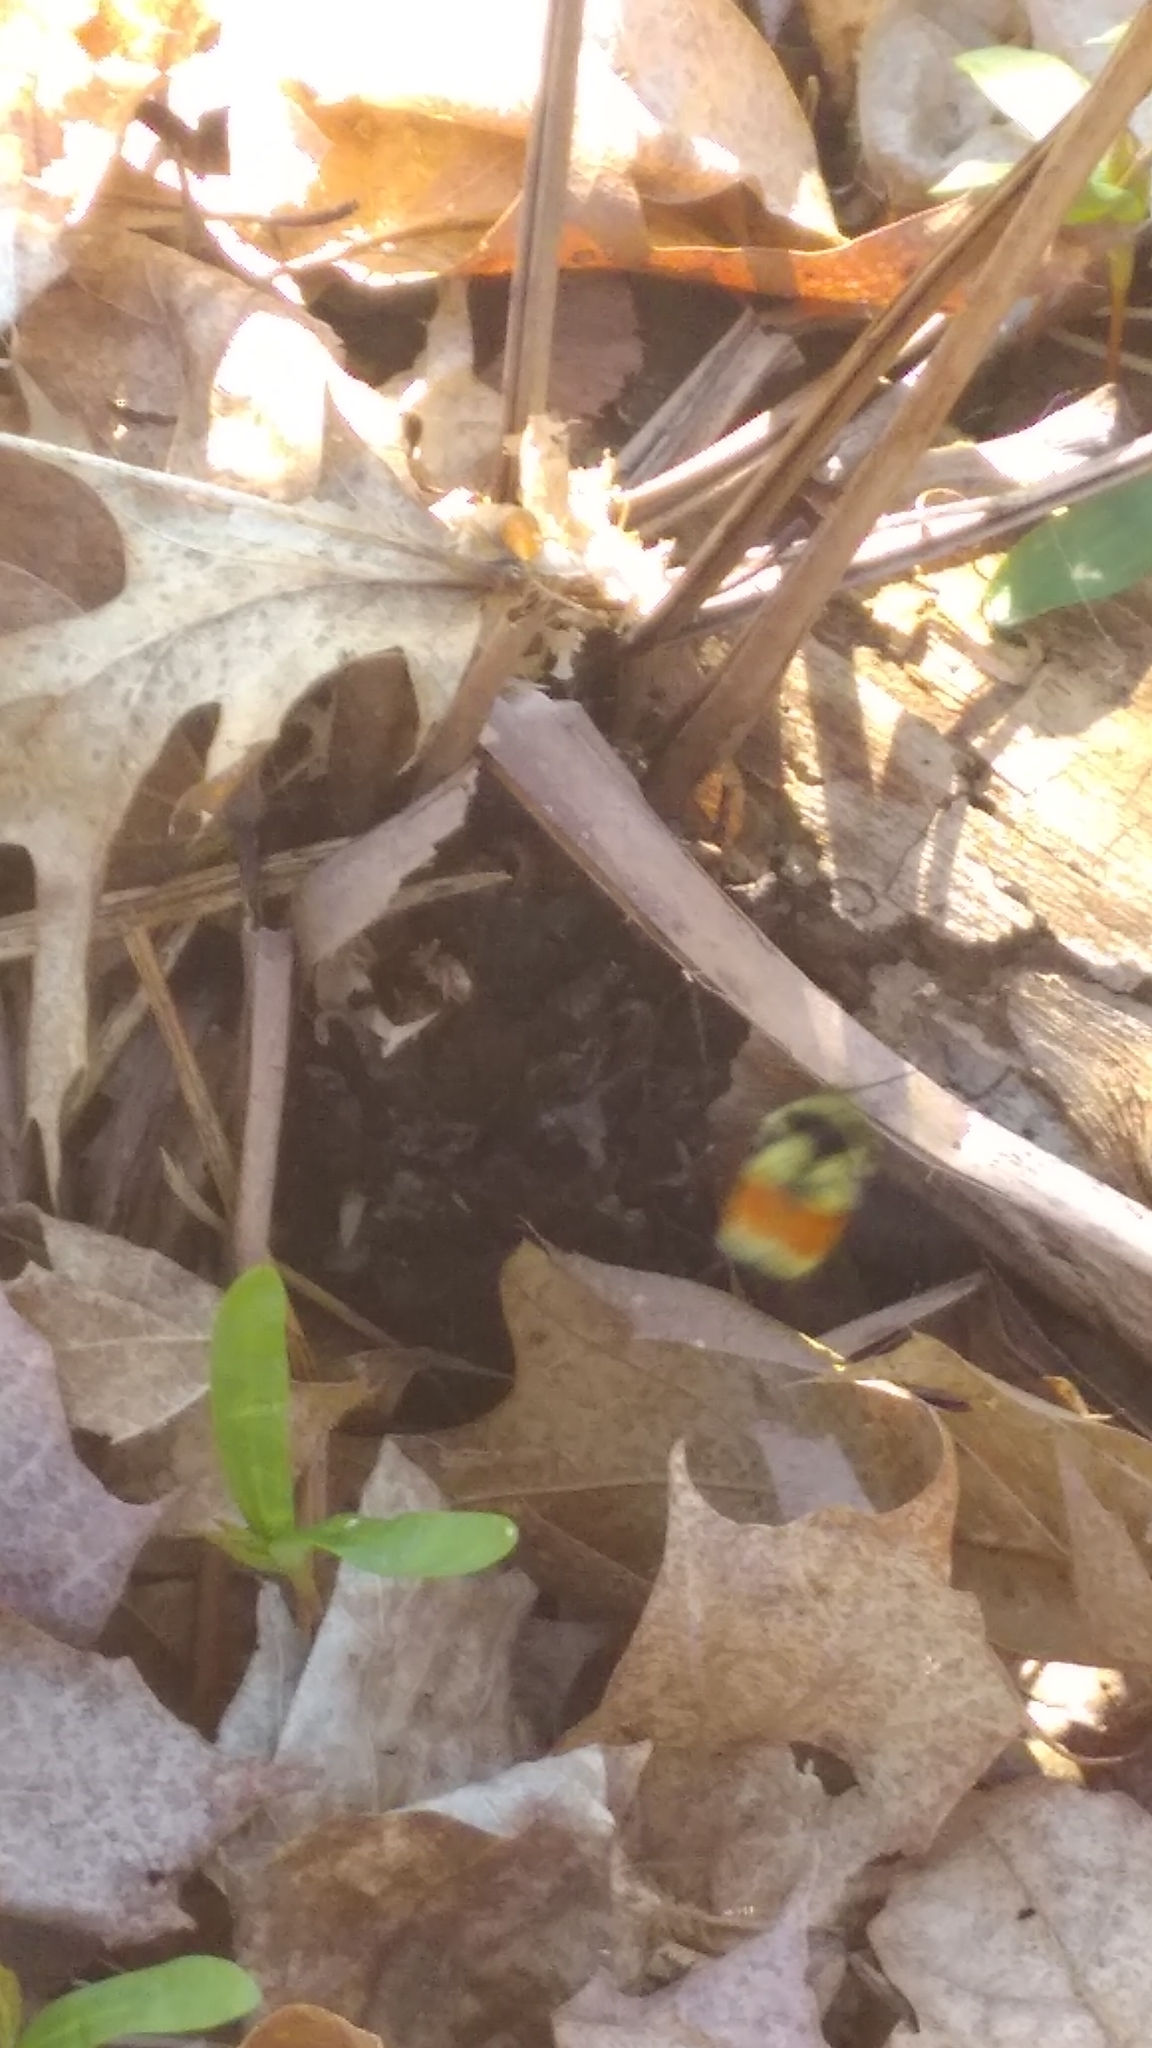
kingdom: Animalia
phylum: Arthropoda
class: Insecta
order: Hymenoptera
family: Apidae
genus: Bombus
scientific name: Bombus ternarius
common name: Tri-colored bumble bee
